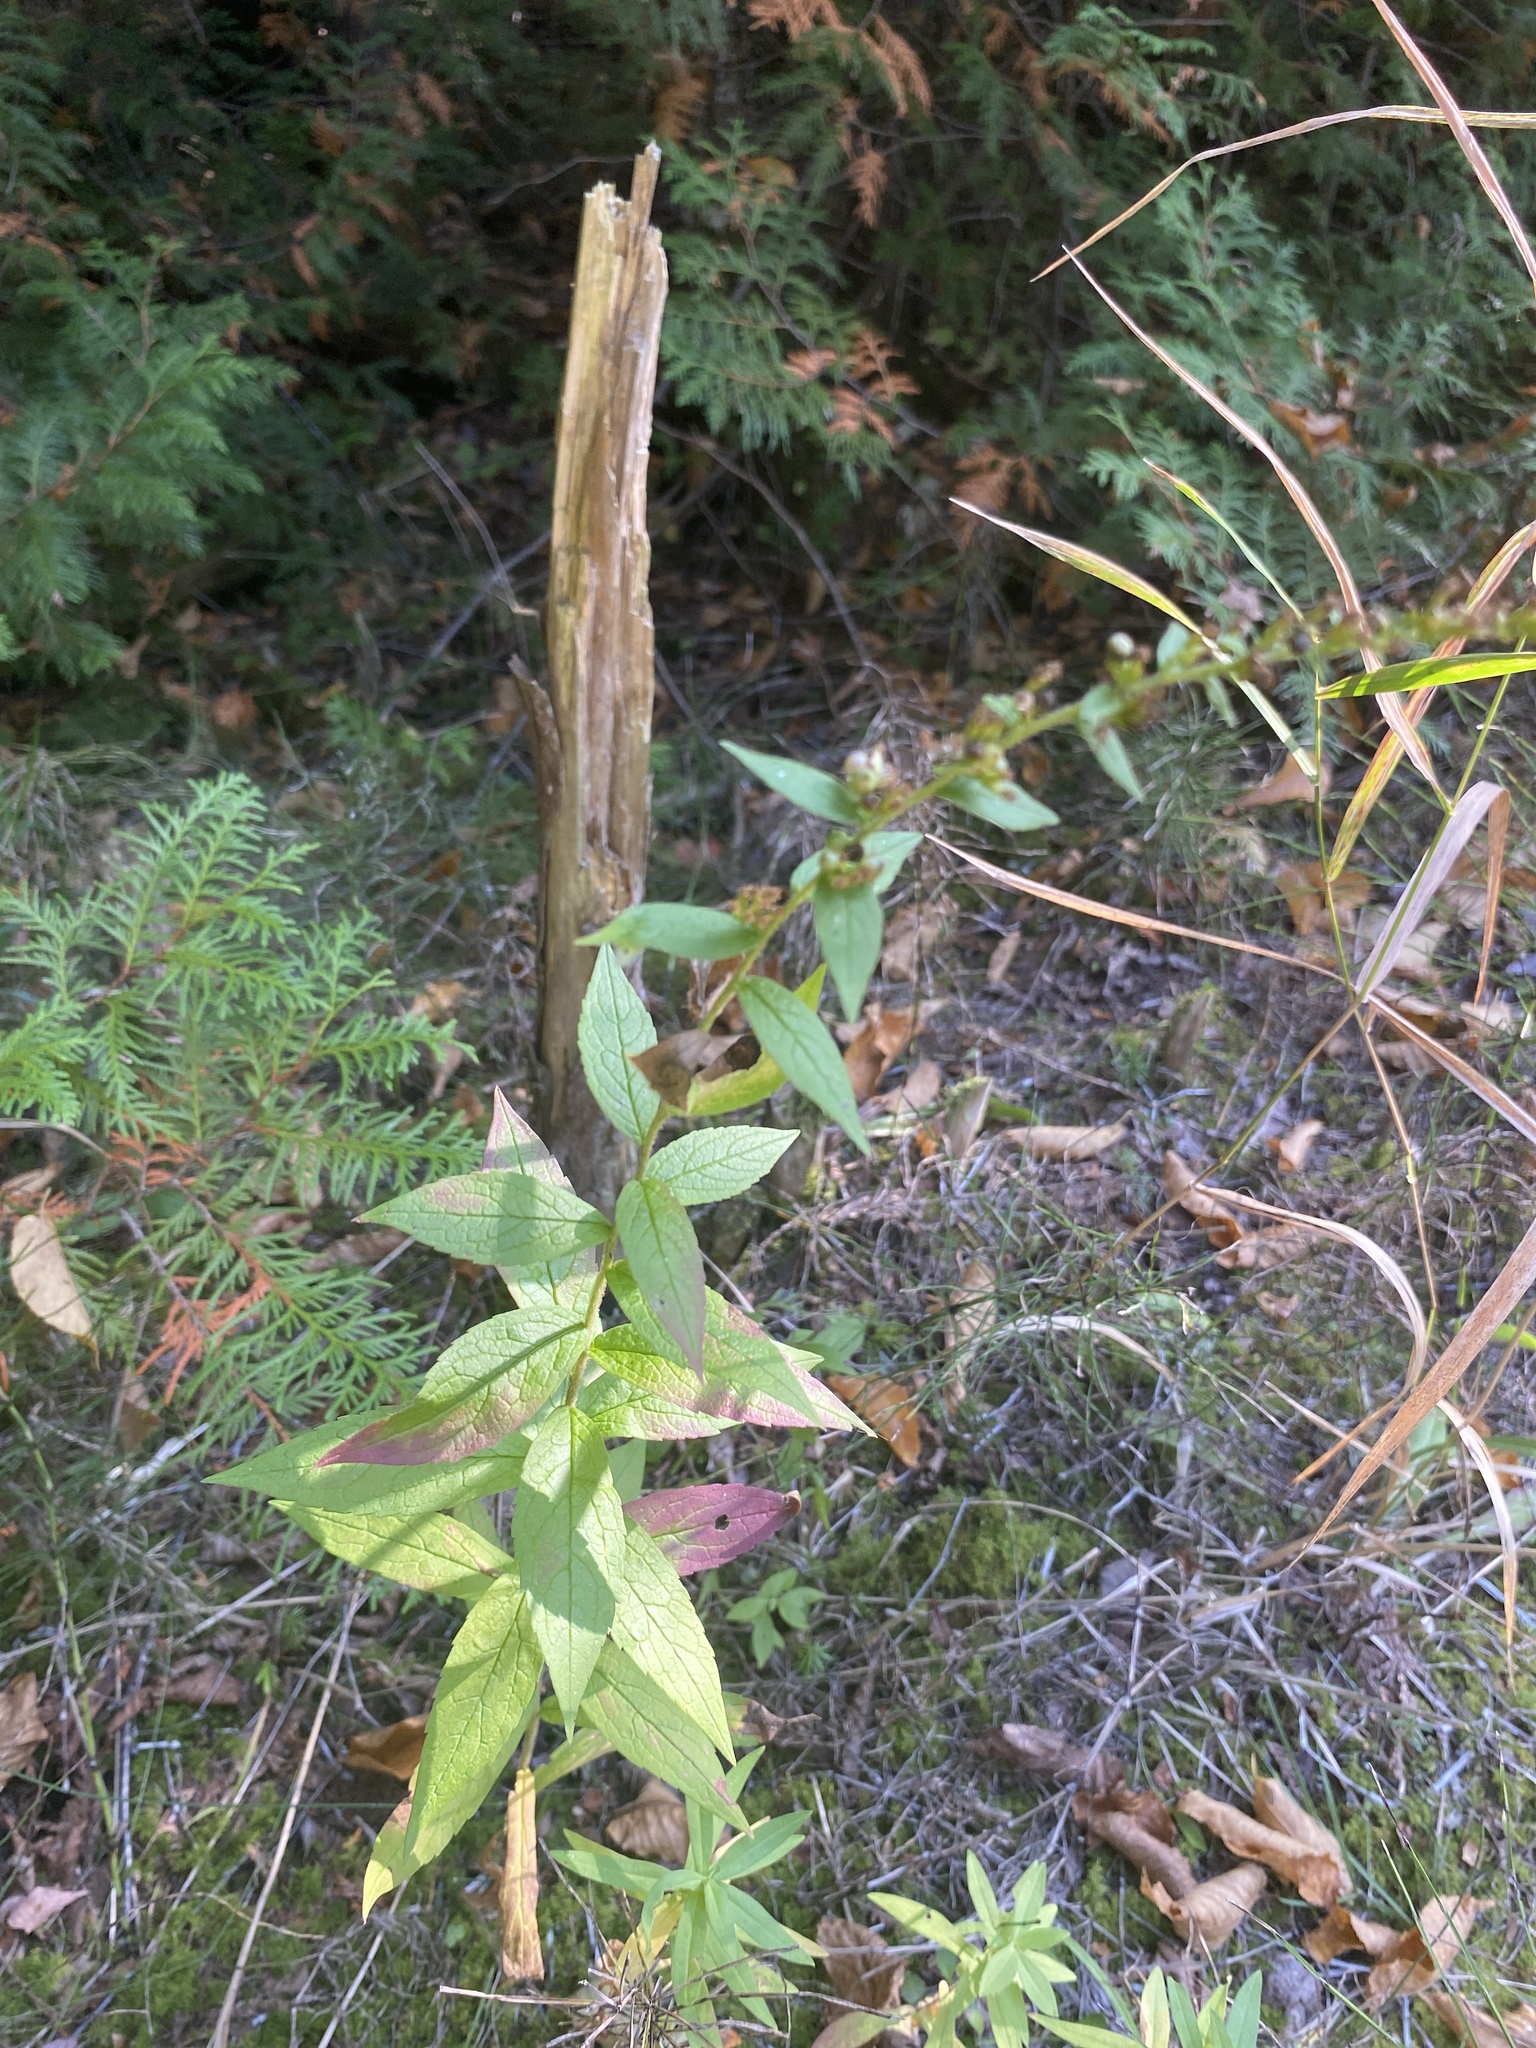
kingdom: Plantae
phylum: Tracheophyta
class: Magnoliopsida
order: Asterales
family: Asteraceae
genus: Solidago
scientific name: Solidago rugosa
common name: Rough-stemmed goldenrod
